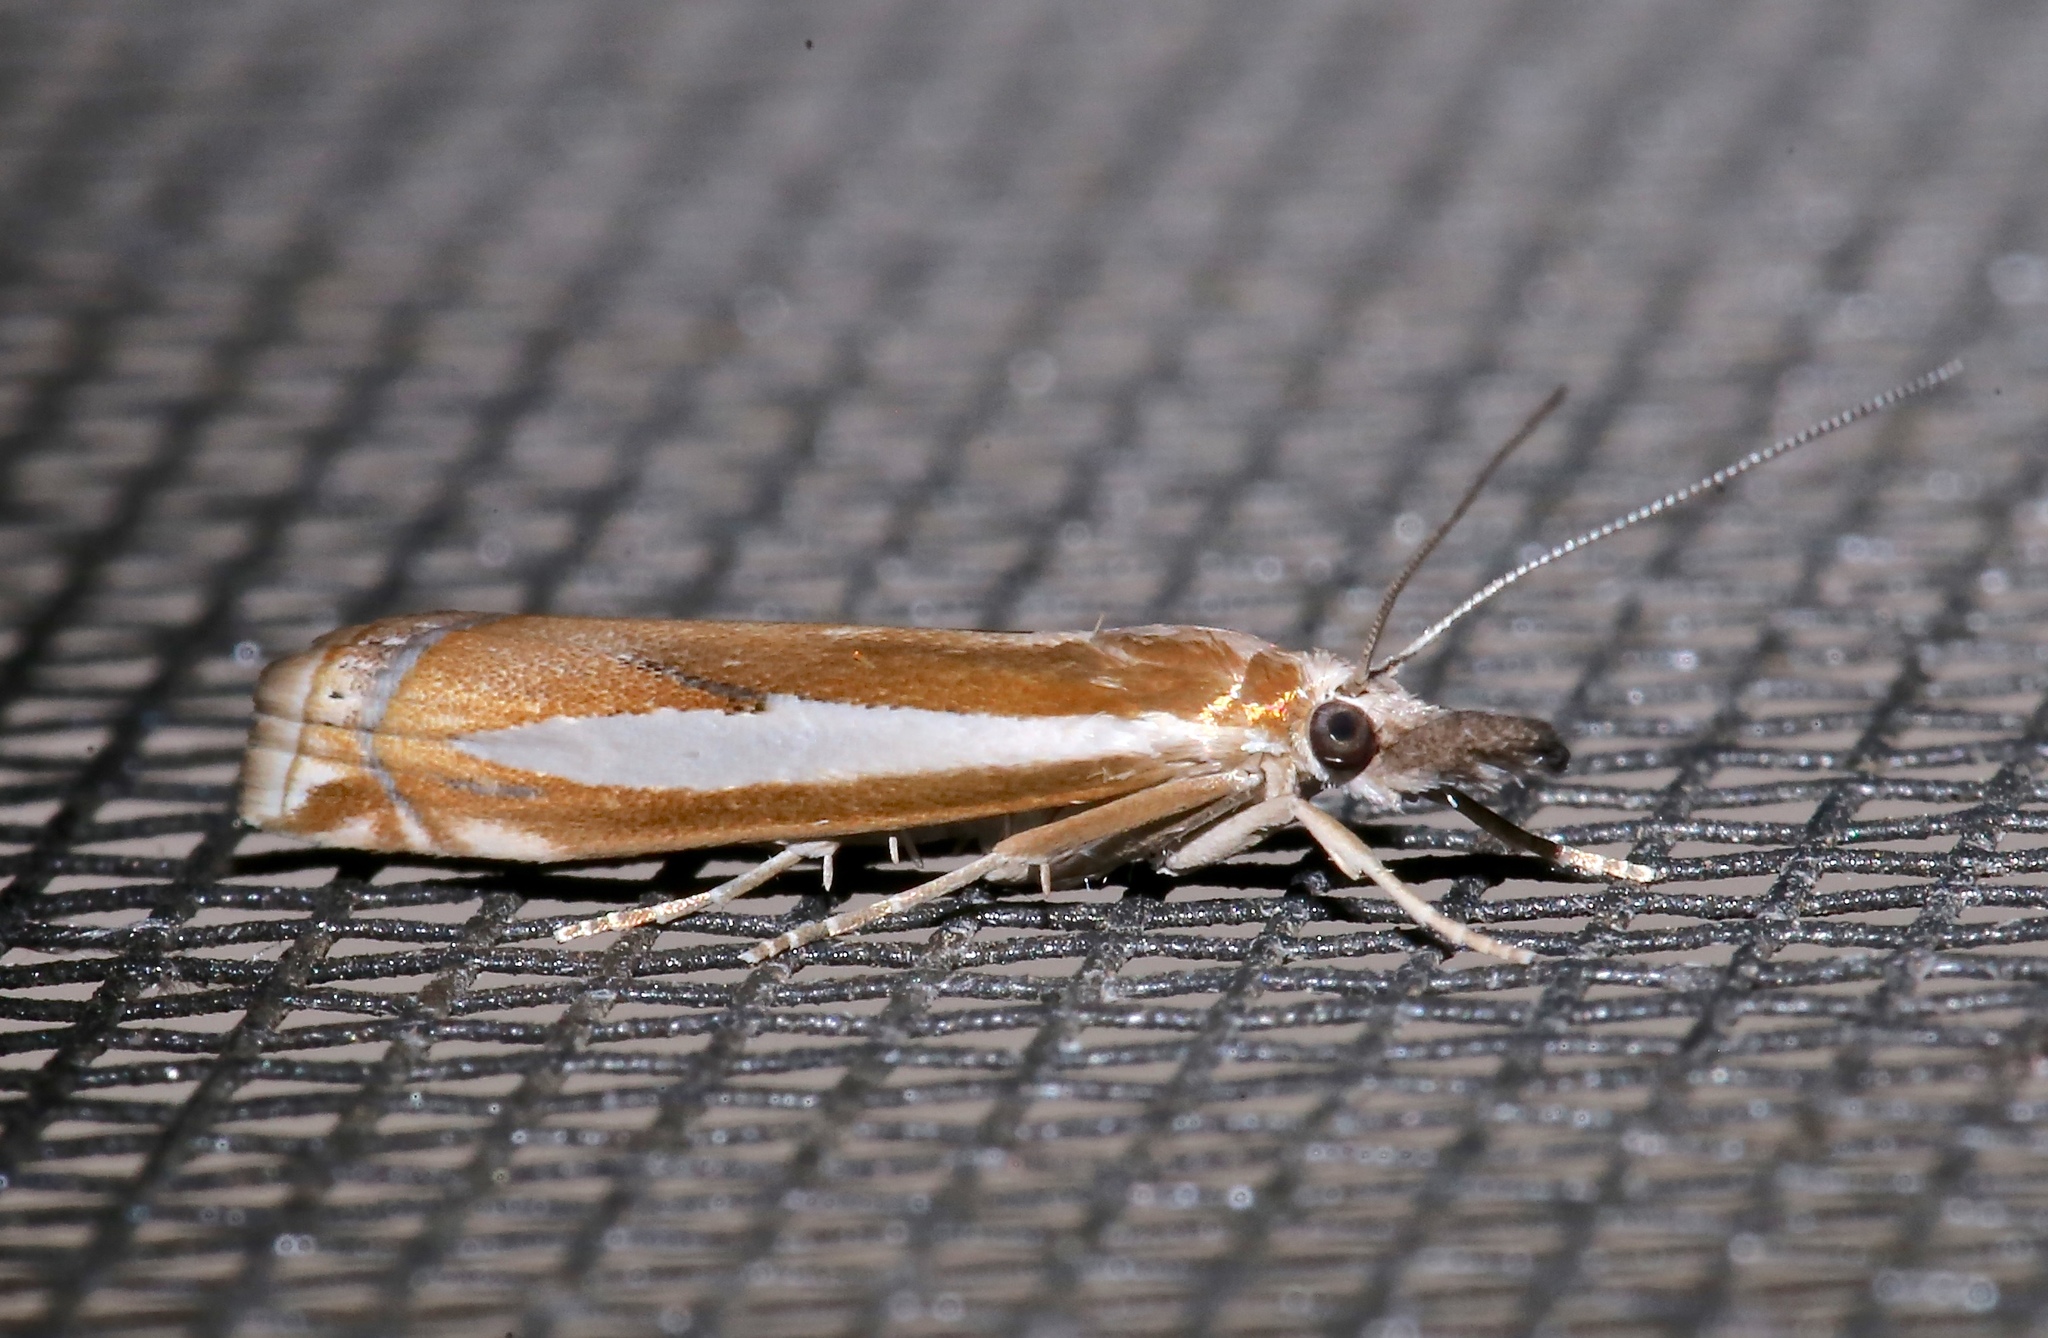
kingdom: Animalia
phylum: Arthropoda
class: Insecta
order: Lepidoptera
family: Crambidae
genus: Crambus
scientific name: Crambus praefectellus
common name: Common grass-veneer
